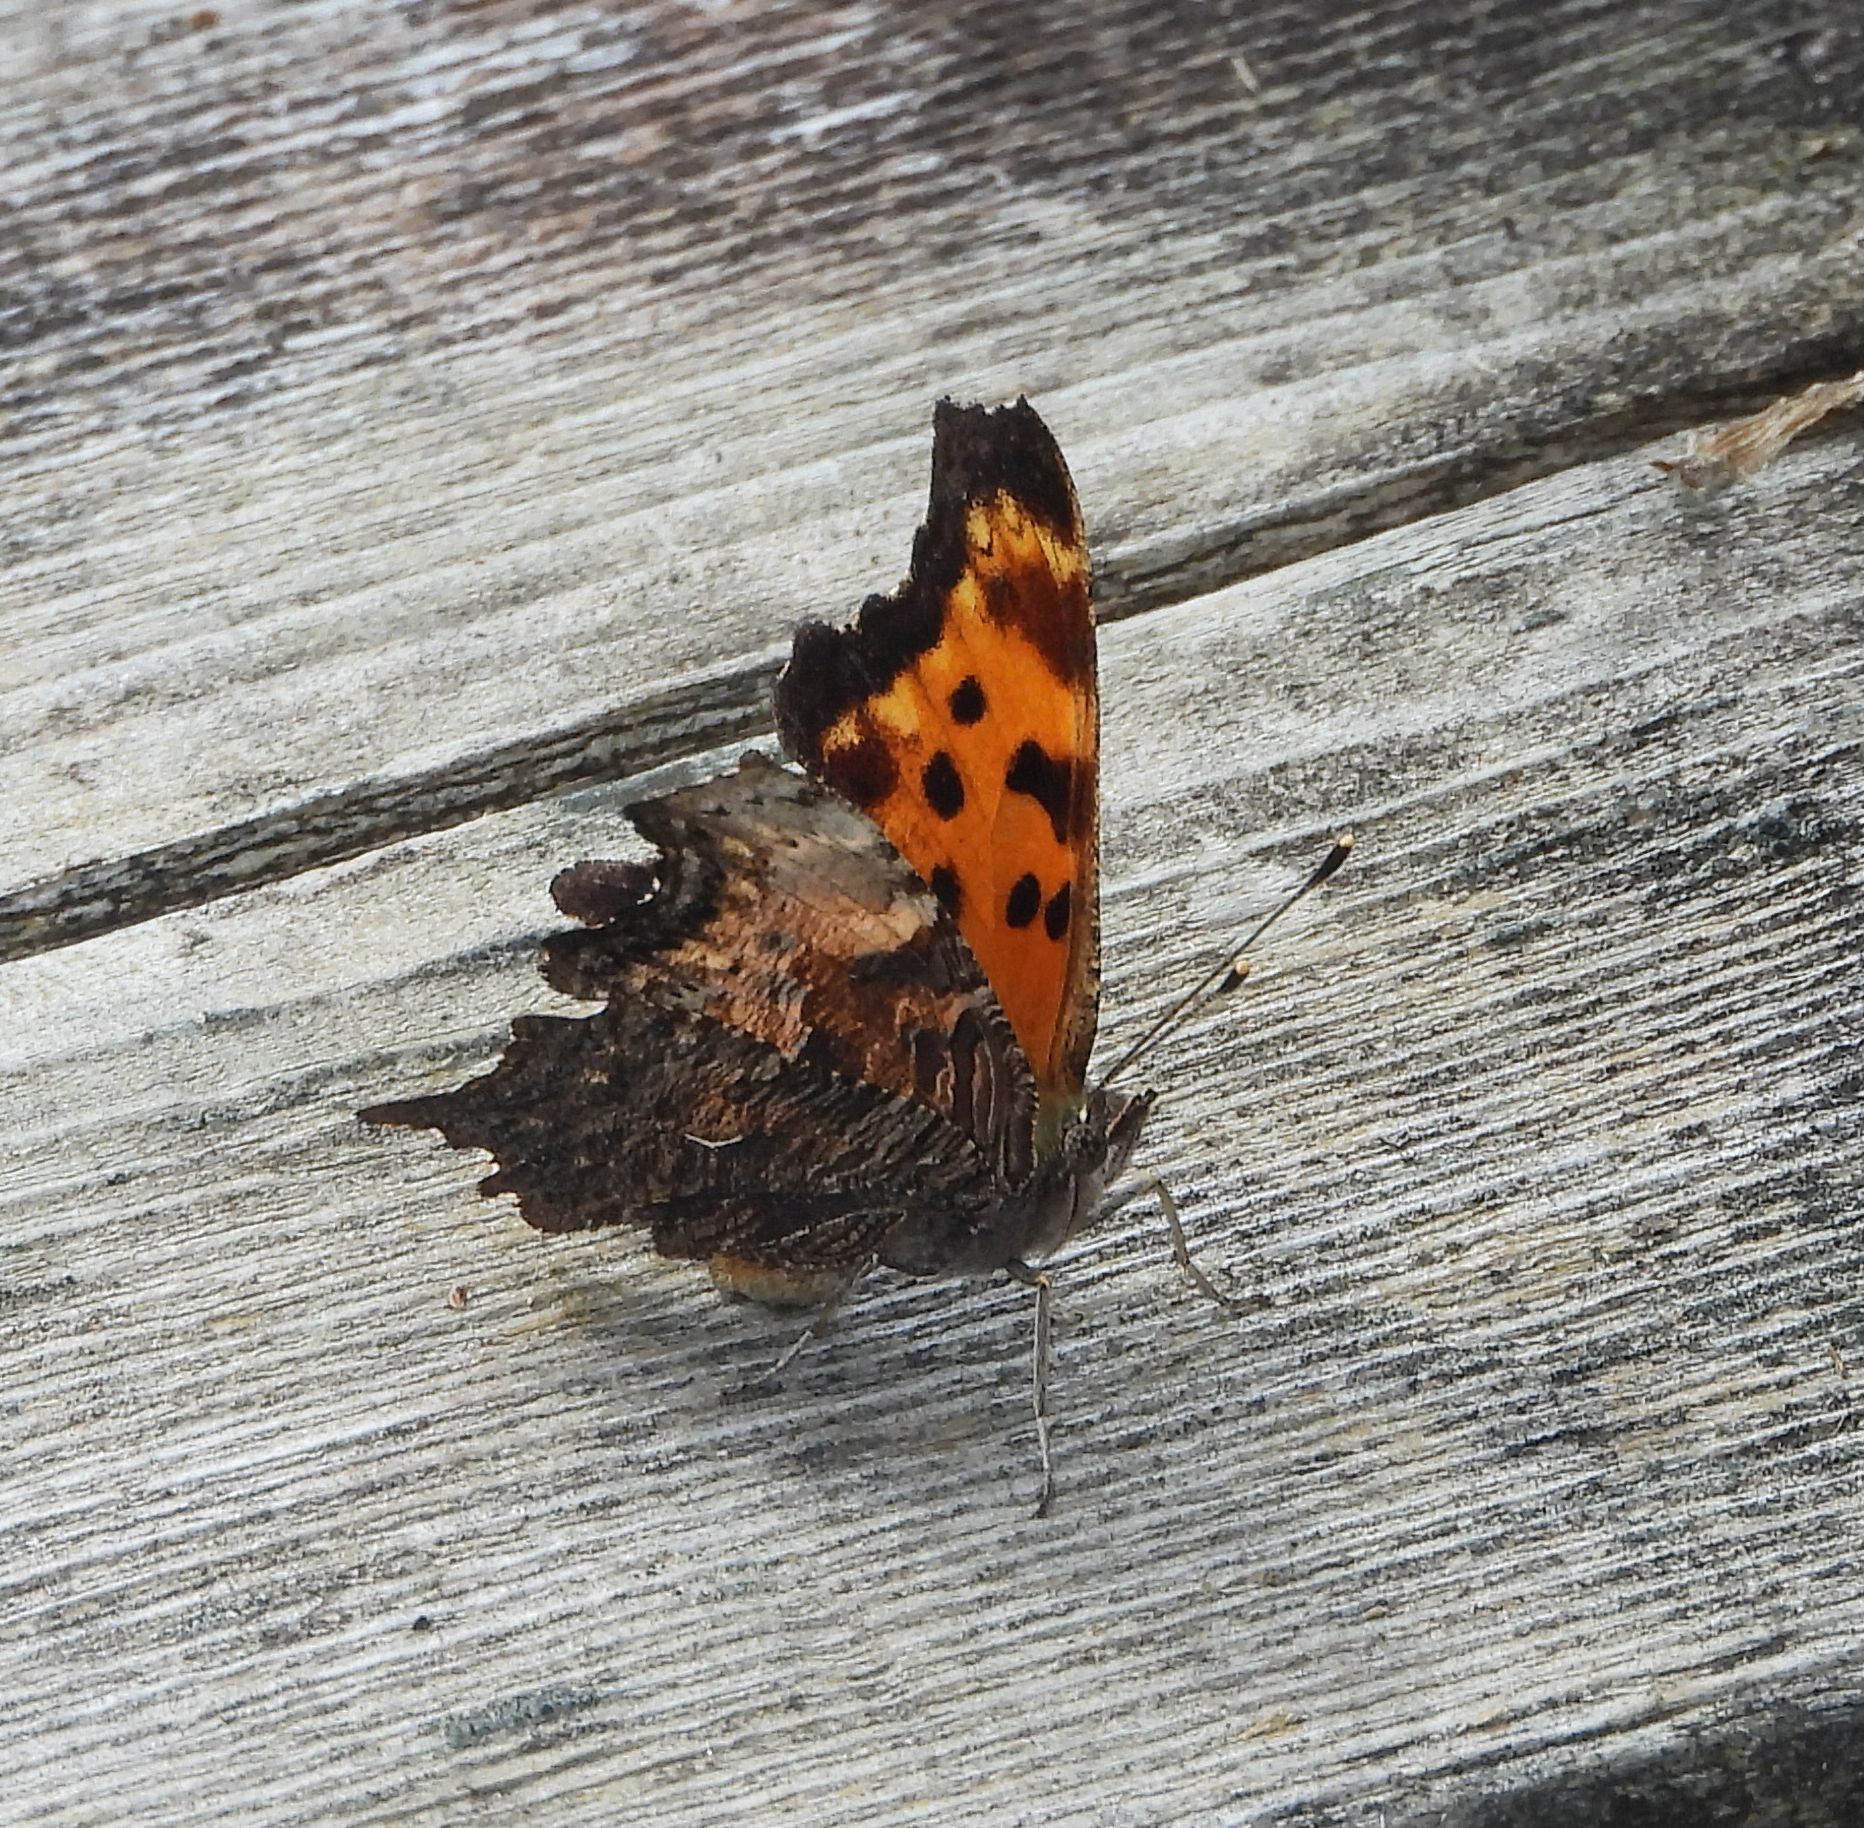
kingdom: Animalia
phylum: Arthropoda
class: Insecta
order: Lepidoptera
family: Nymphalidae
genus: Polygonia
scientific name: Polygonia progne
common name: Gray comma
